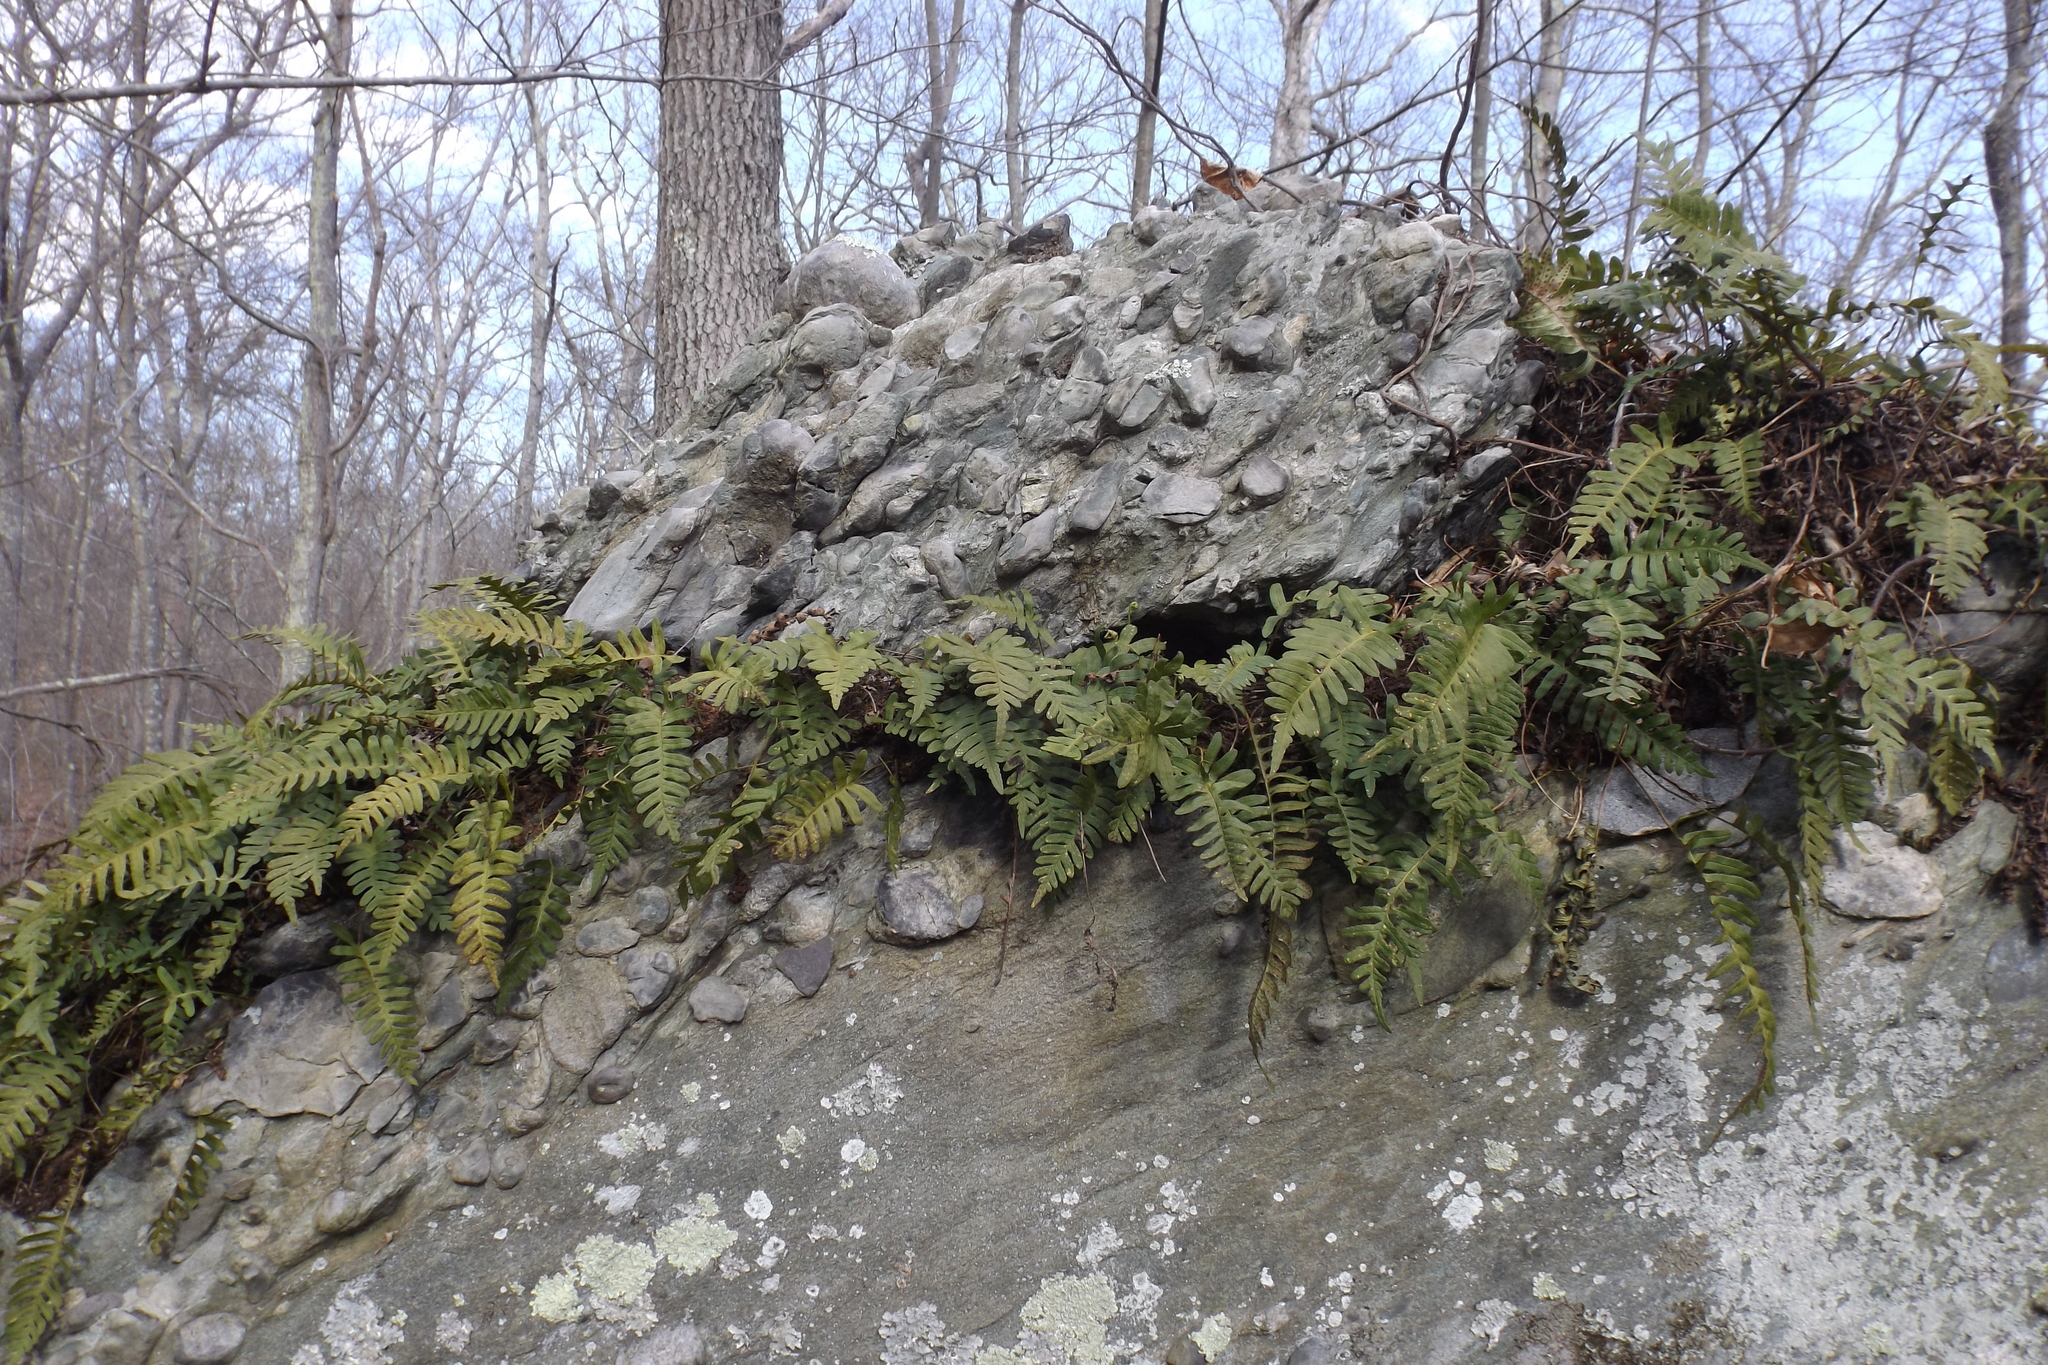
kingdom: Plantae
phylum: Tracheophyta
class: Polypodiopsida
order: Polypodiales
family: Polypodiaceae
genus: Polypodium
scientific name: Polypodium virginianum
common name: American wall fern
